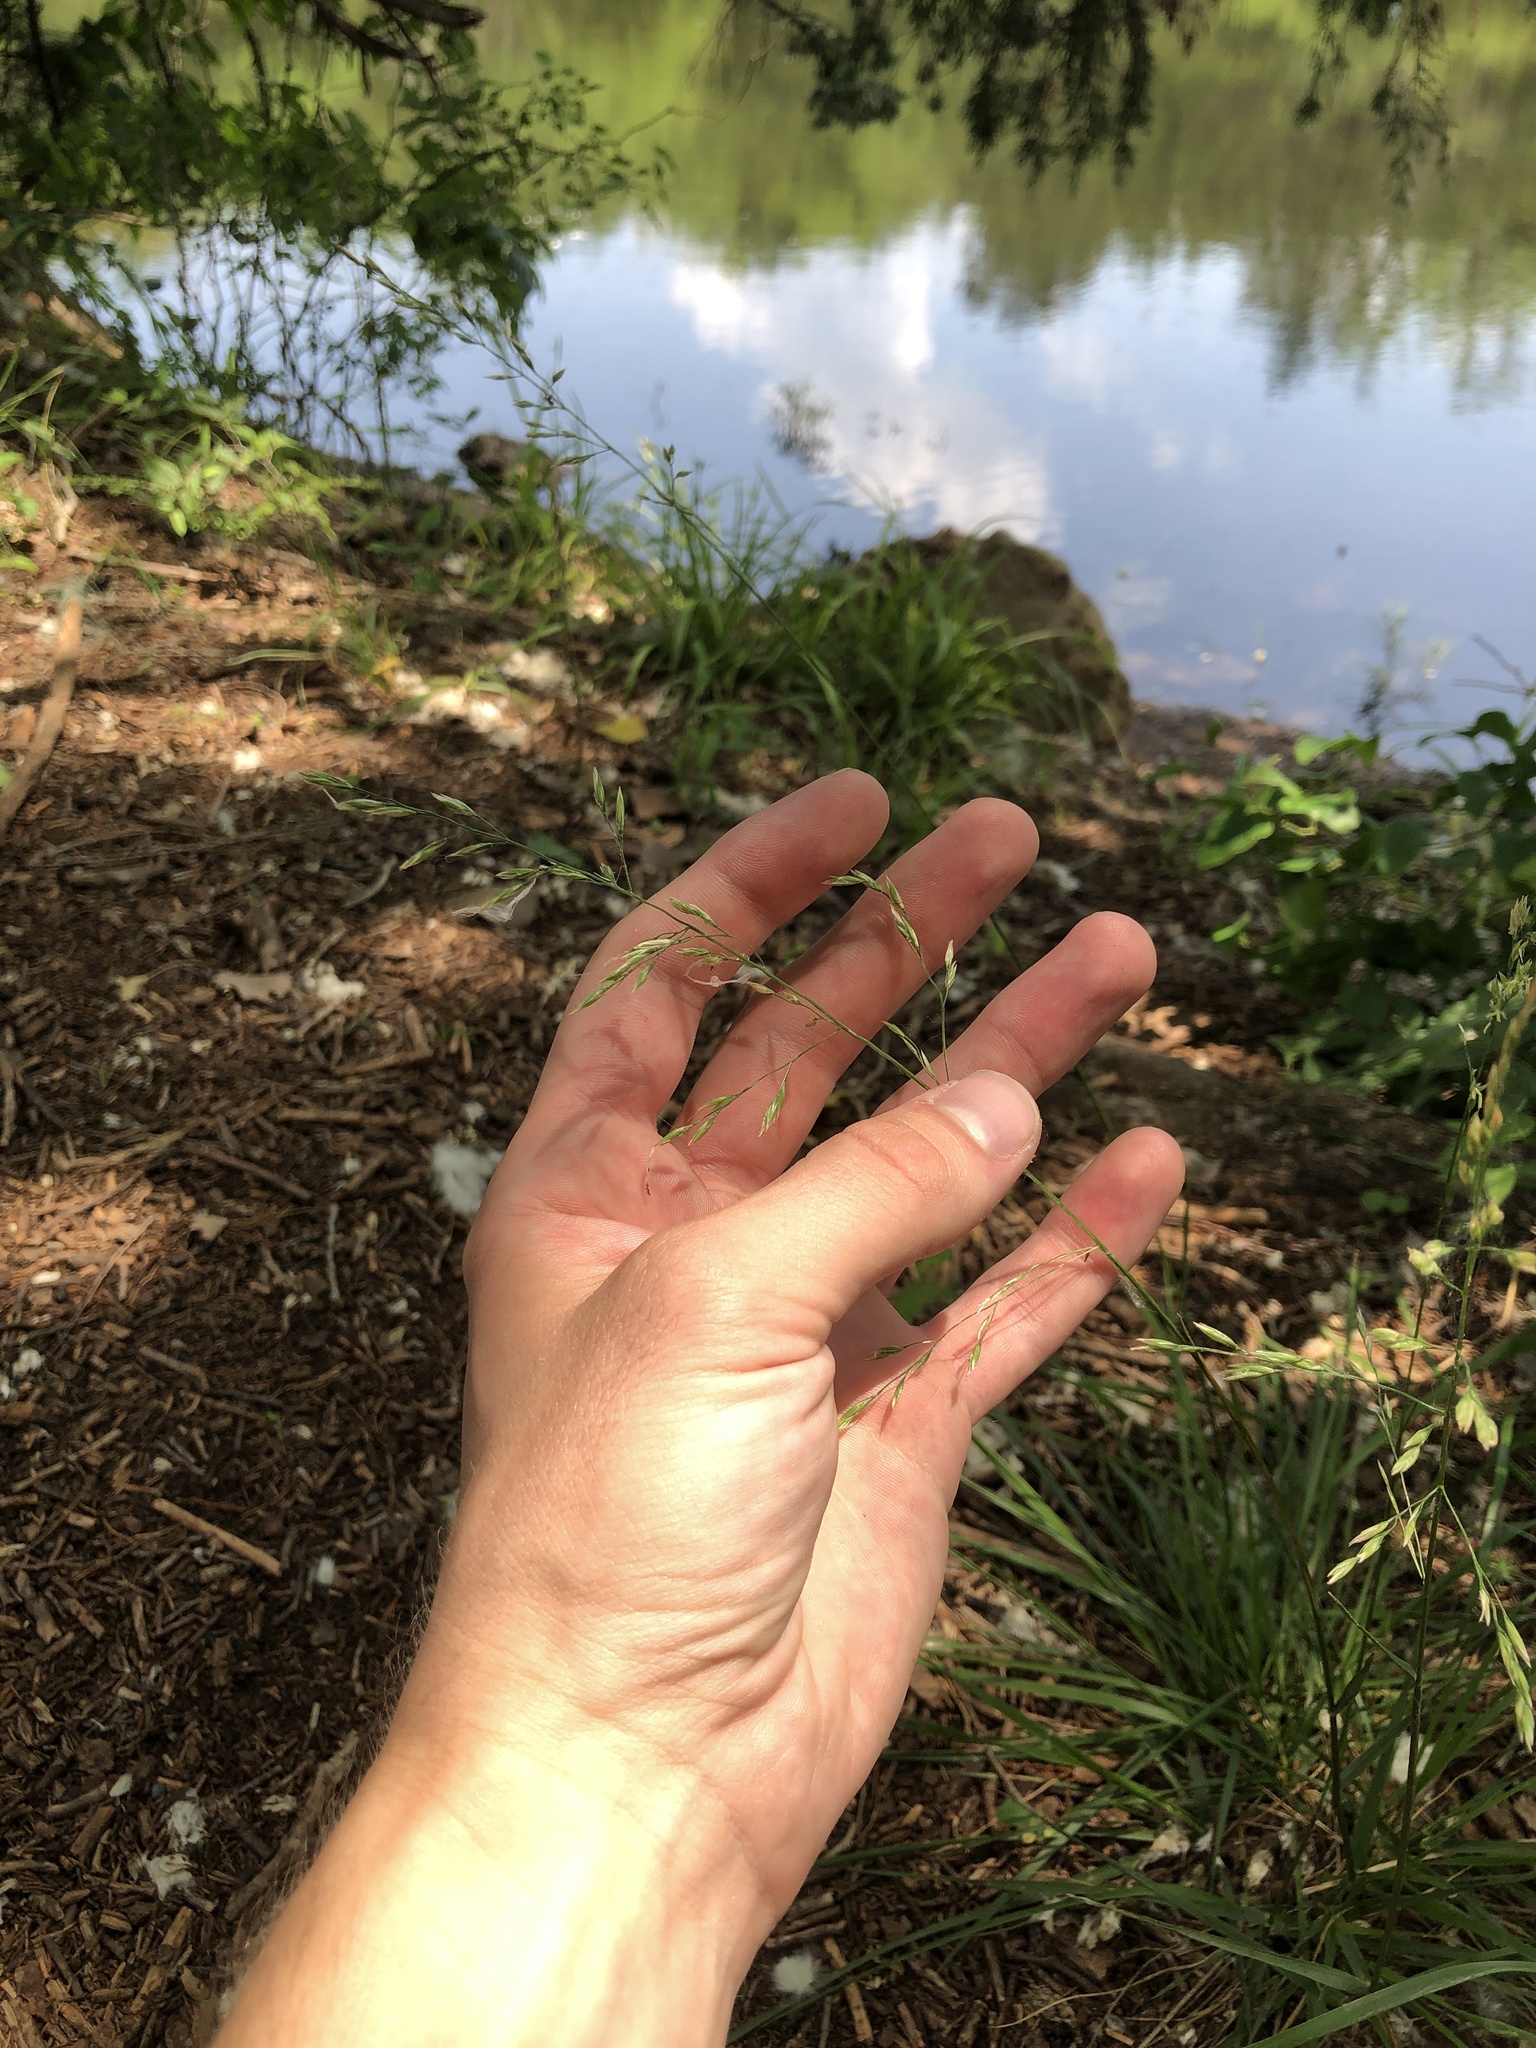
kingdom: Plantae
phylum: Tracheophyta
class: Liliopsida
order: Poales
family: Poaceae
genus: Lolium
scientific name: Lolium arundinaceum
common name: Reed fescue
